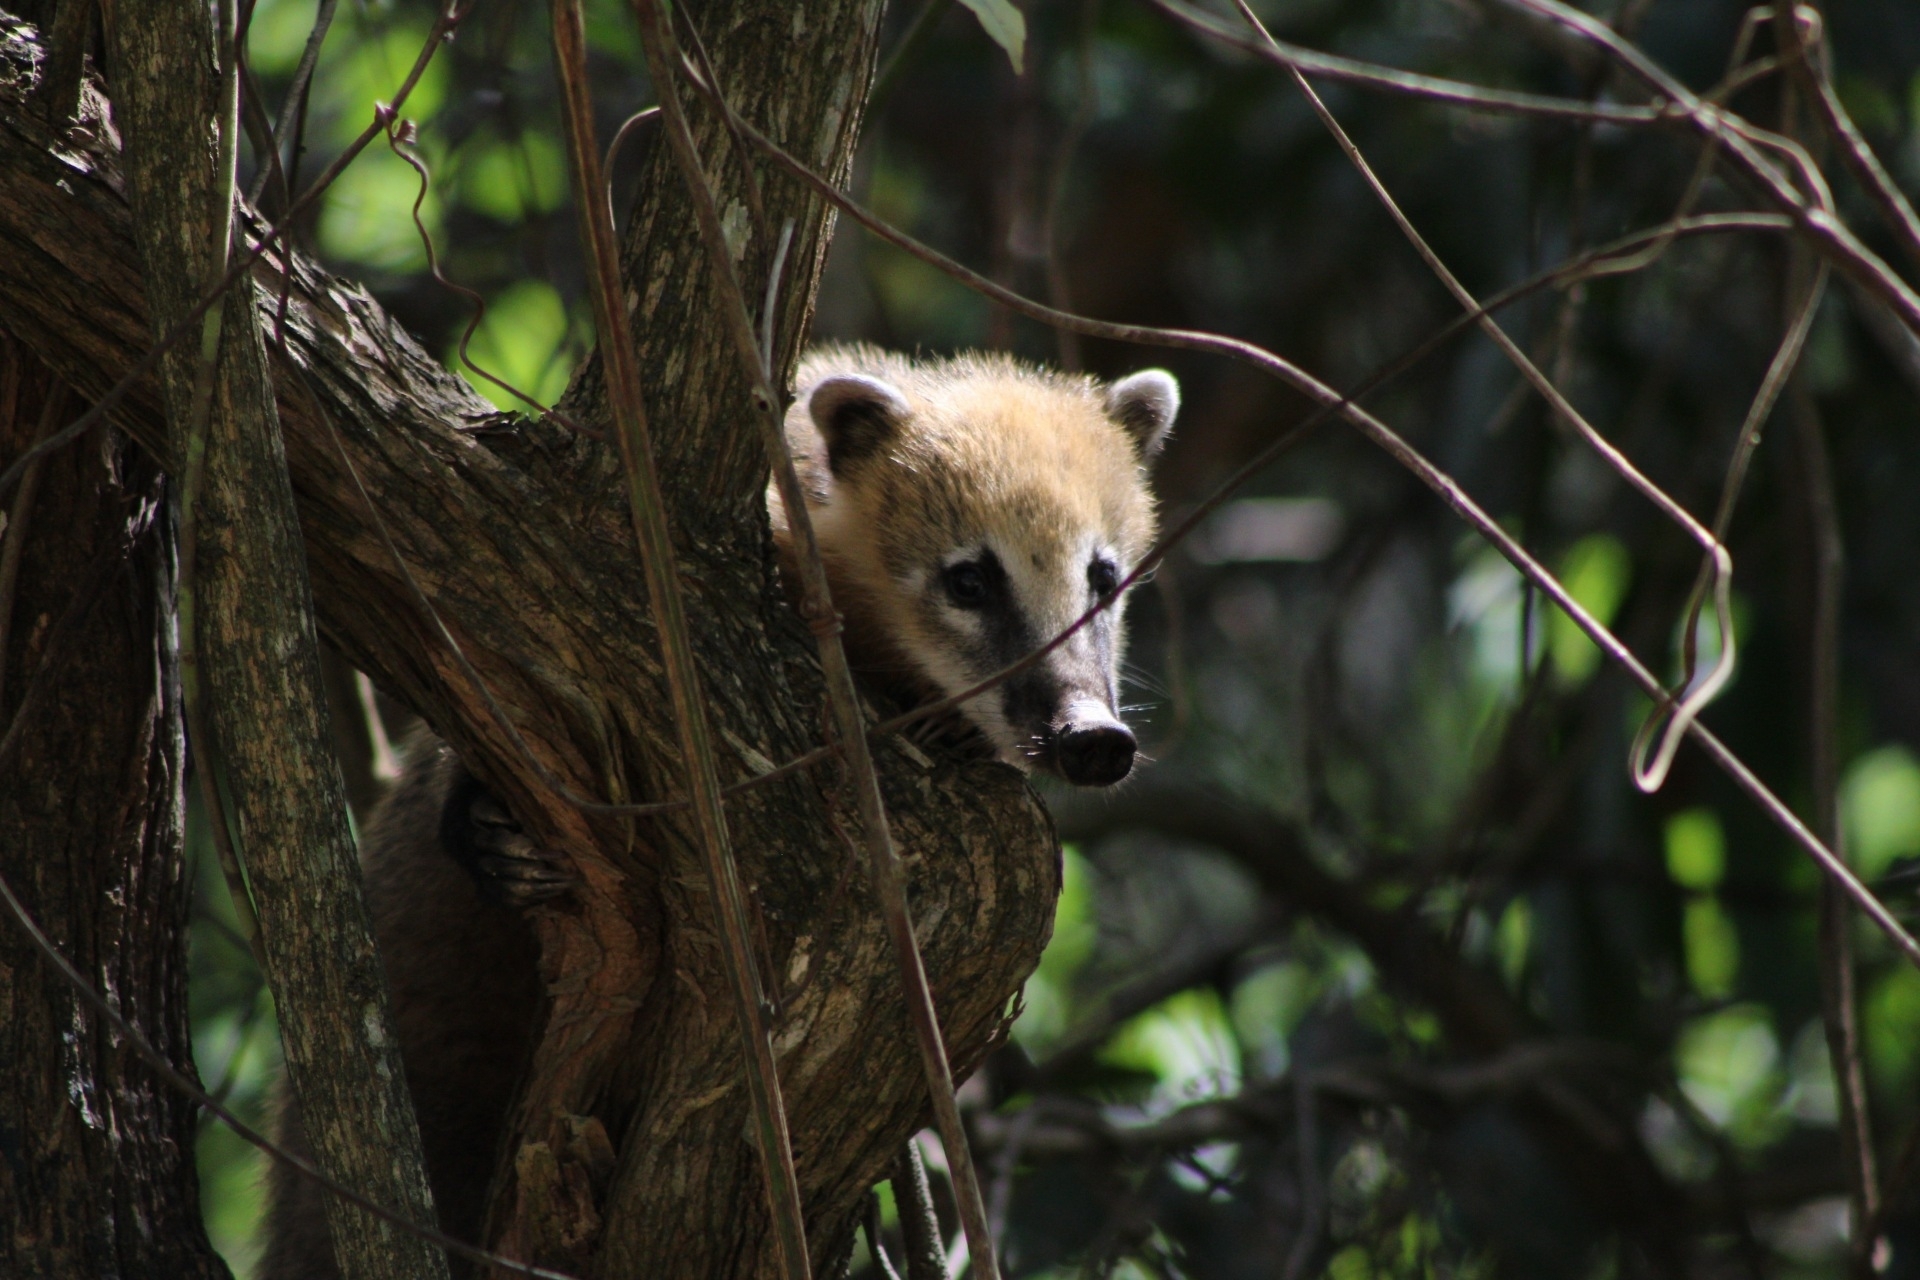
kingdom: Animalia
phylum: Chordata
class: Mammalia
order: Carnivora
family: Procyonidae
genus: Nasua
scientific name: Nasua nasua
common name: South american coati
